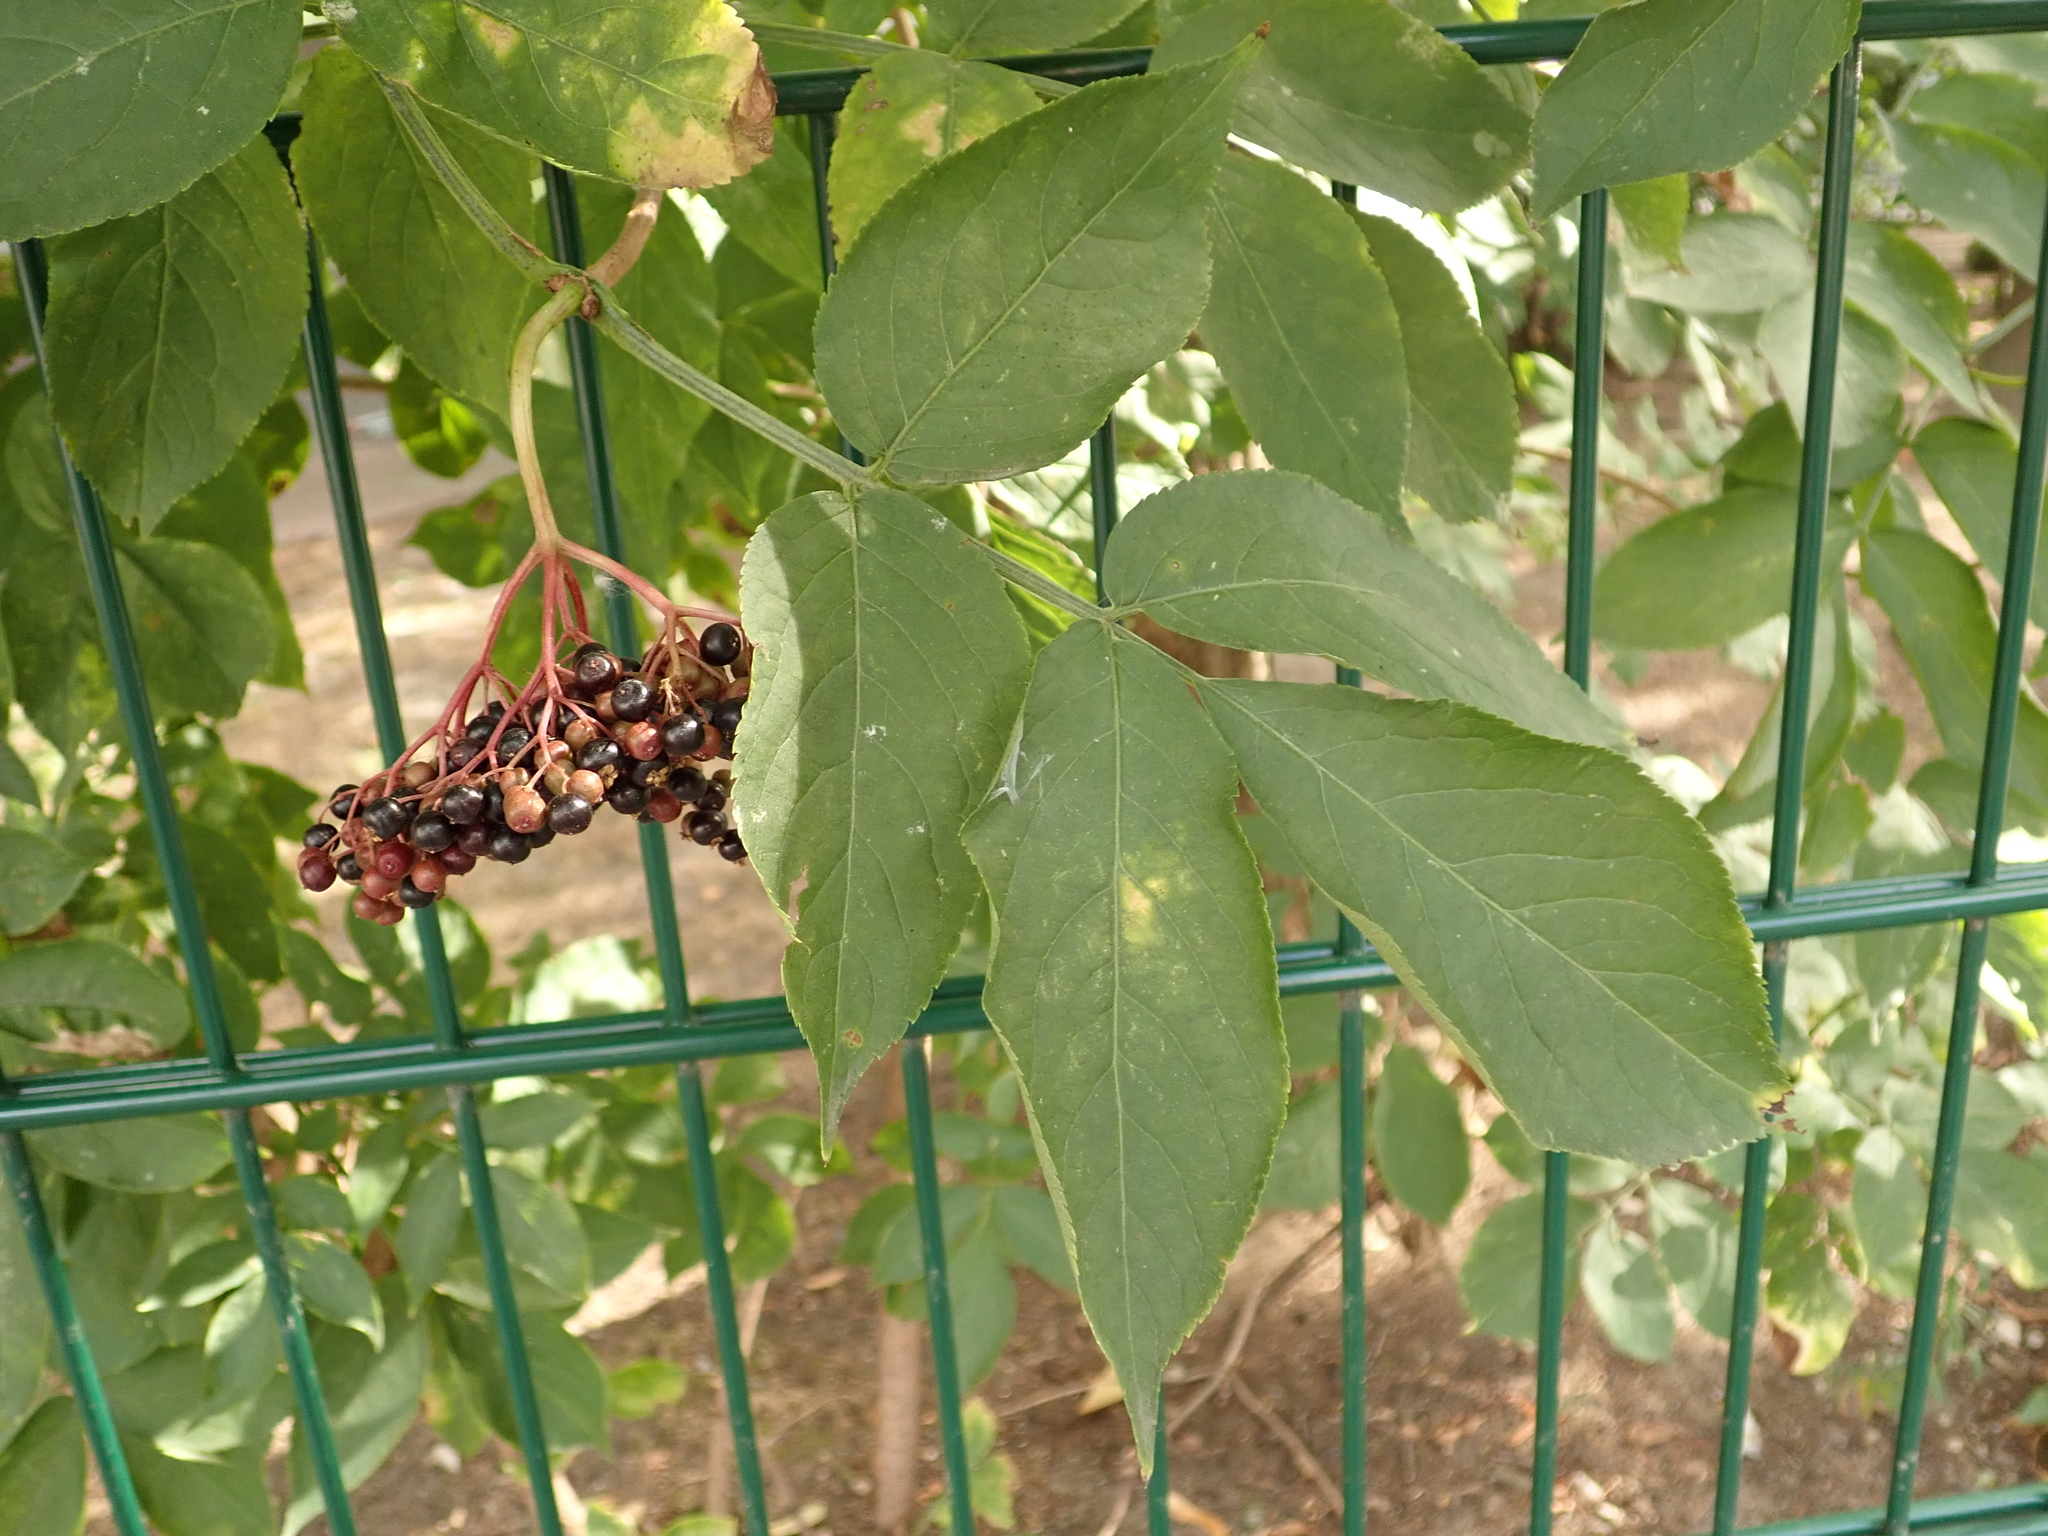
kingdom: Plantae
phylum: Tracheophyta
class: Magnoliopsida
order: Dipsacales
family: Viburnaceae
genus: Sambucus
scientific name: Sambucus nigra
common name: Elder
